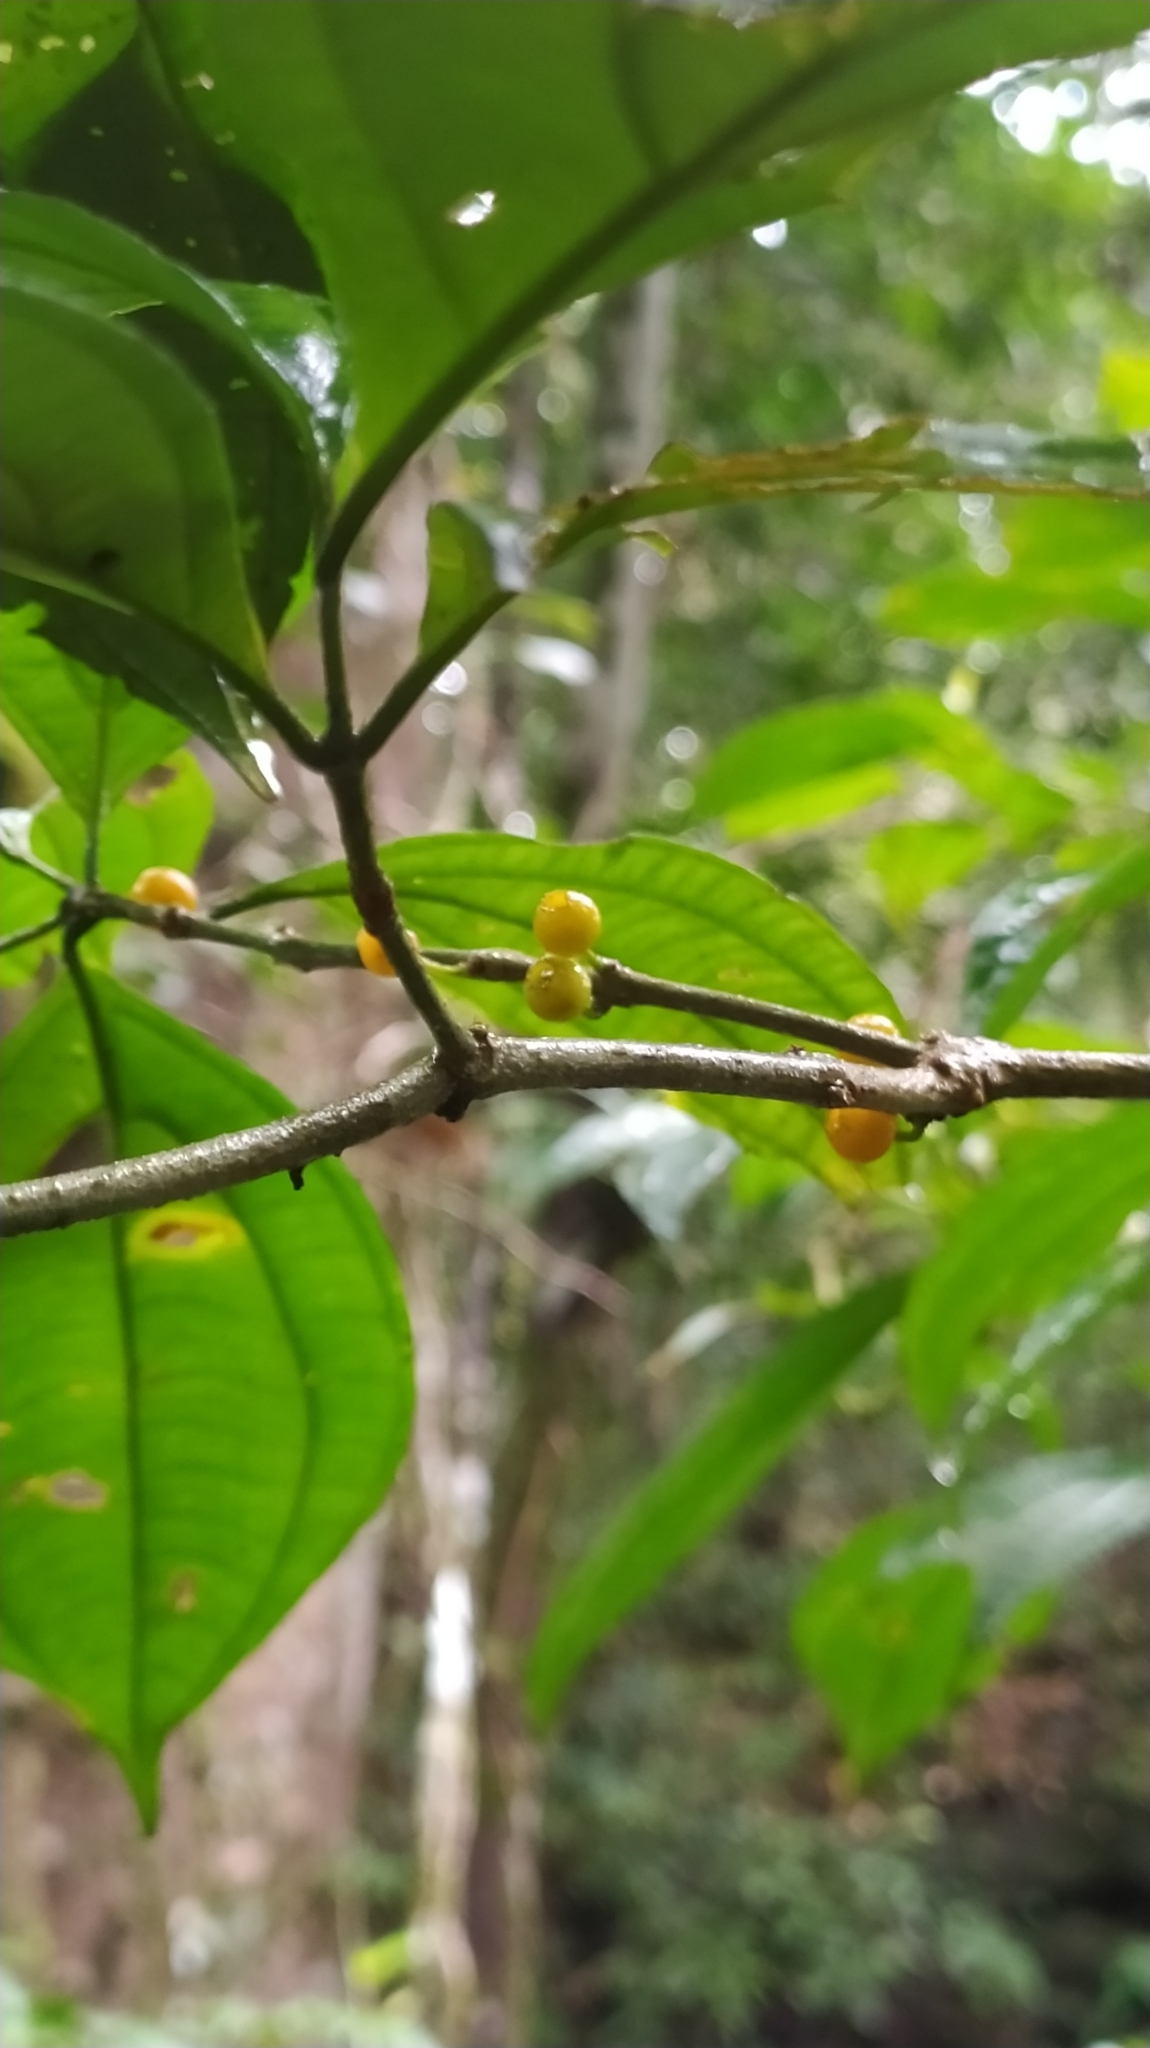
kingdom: Plantae
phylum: Tracheophyta
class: Magnoliopsida
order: Myrtales
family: Melastomataceae
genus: Henriettea
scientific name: Henriettea flavescens
